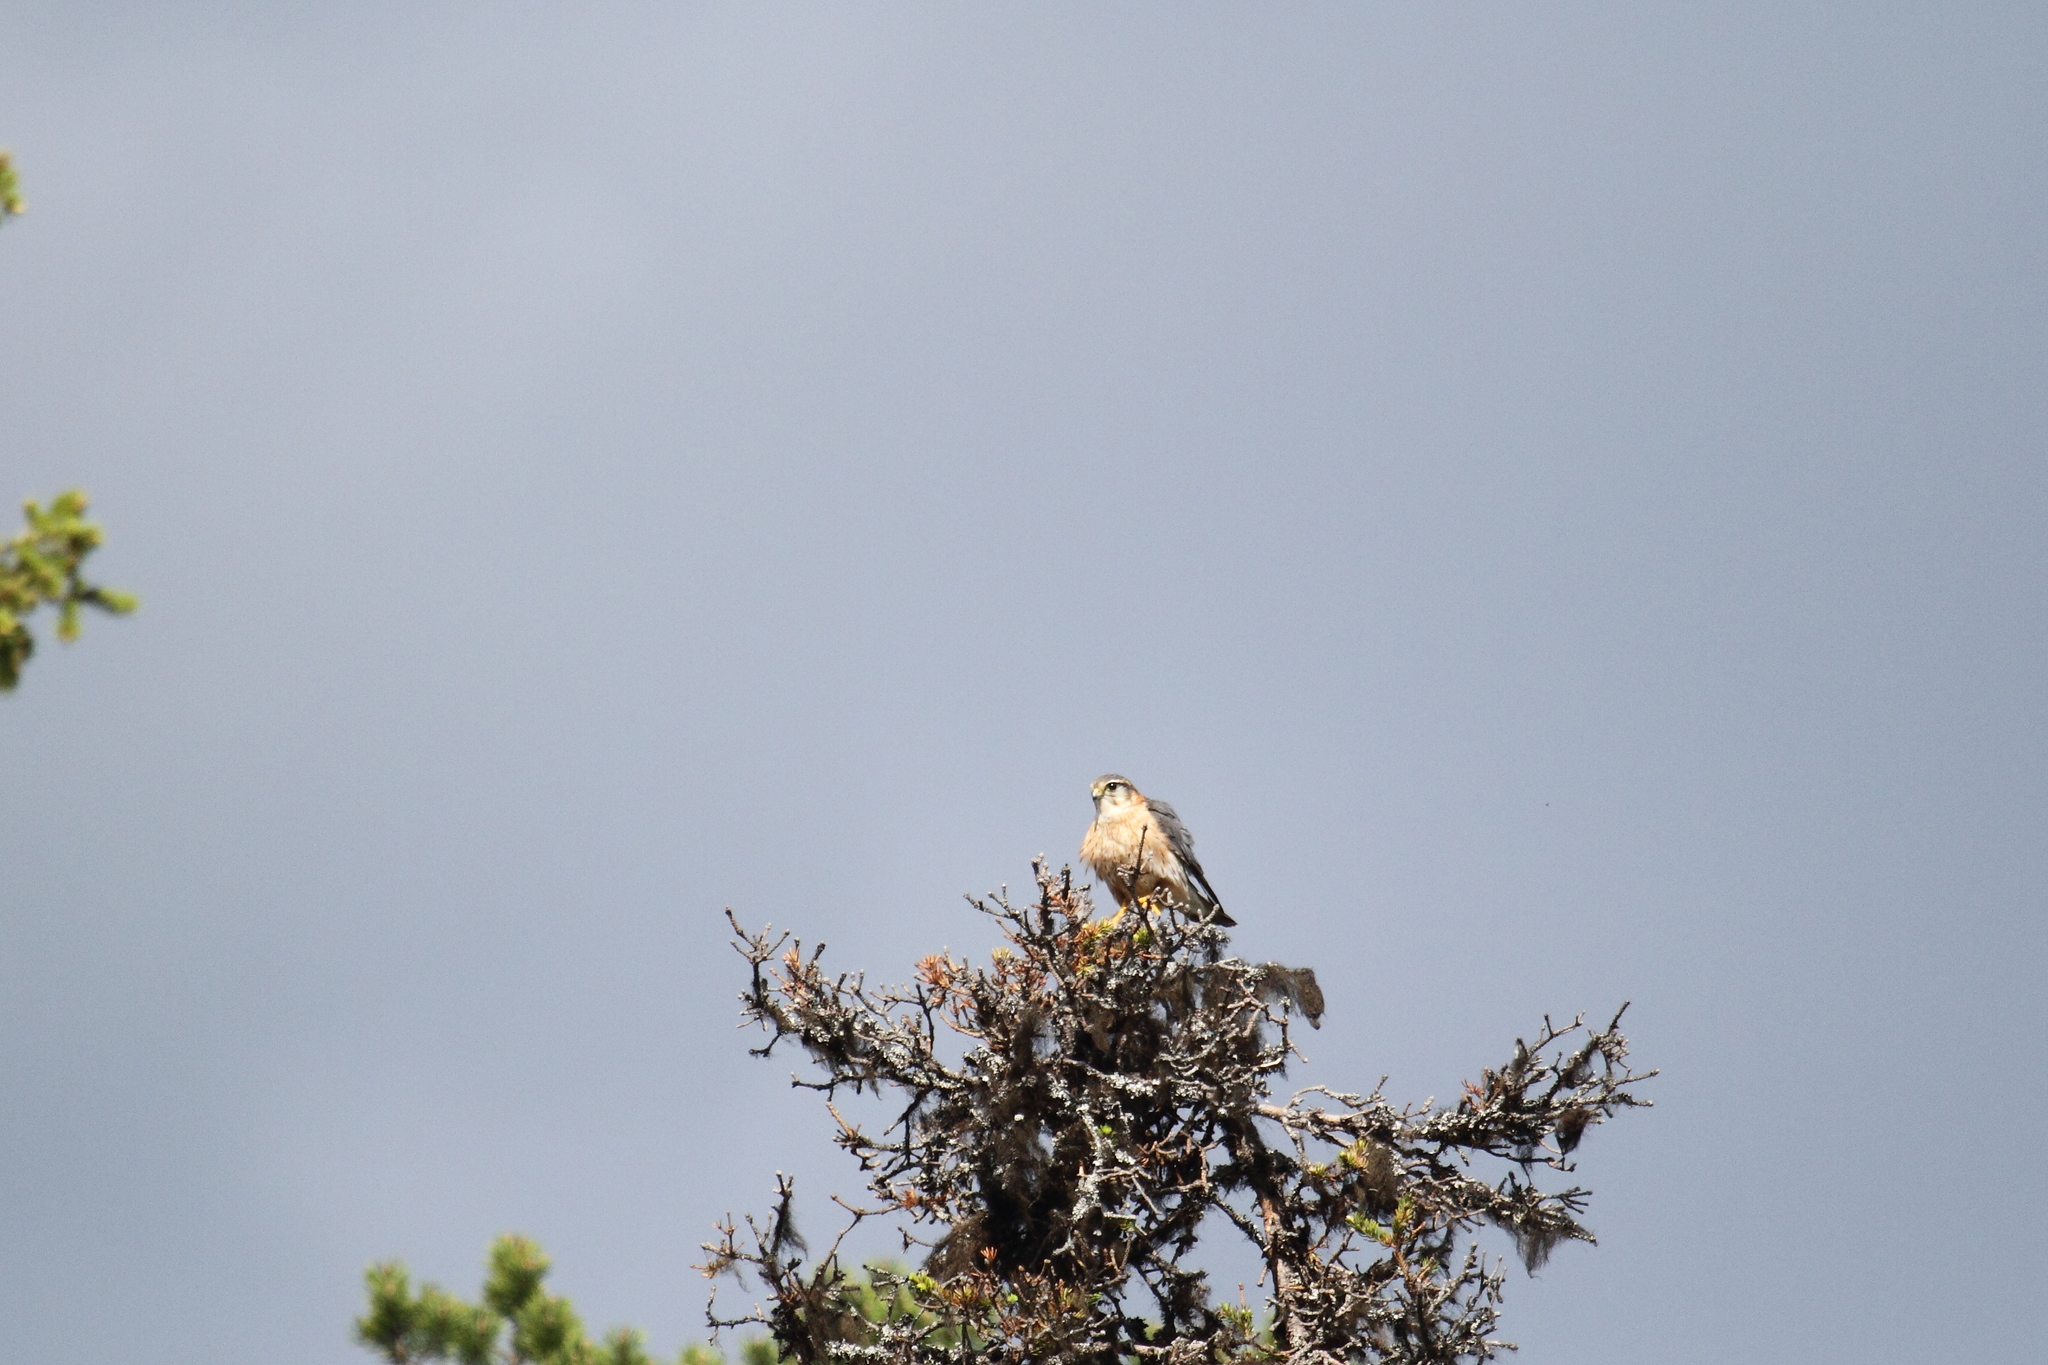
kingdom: Animalia
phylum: Chordata
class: Aves
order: Falconiformes
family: Falconidae
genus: Falco
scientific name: Falco columbarius
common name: Merlin
